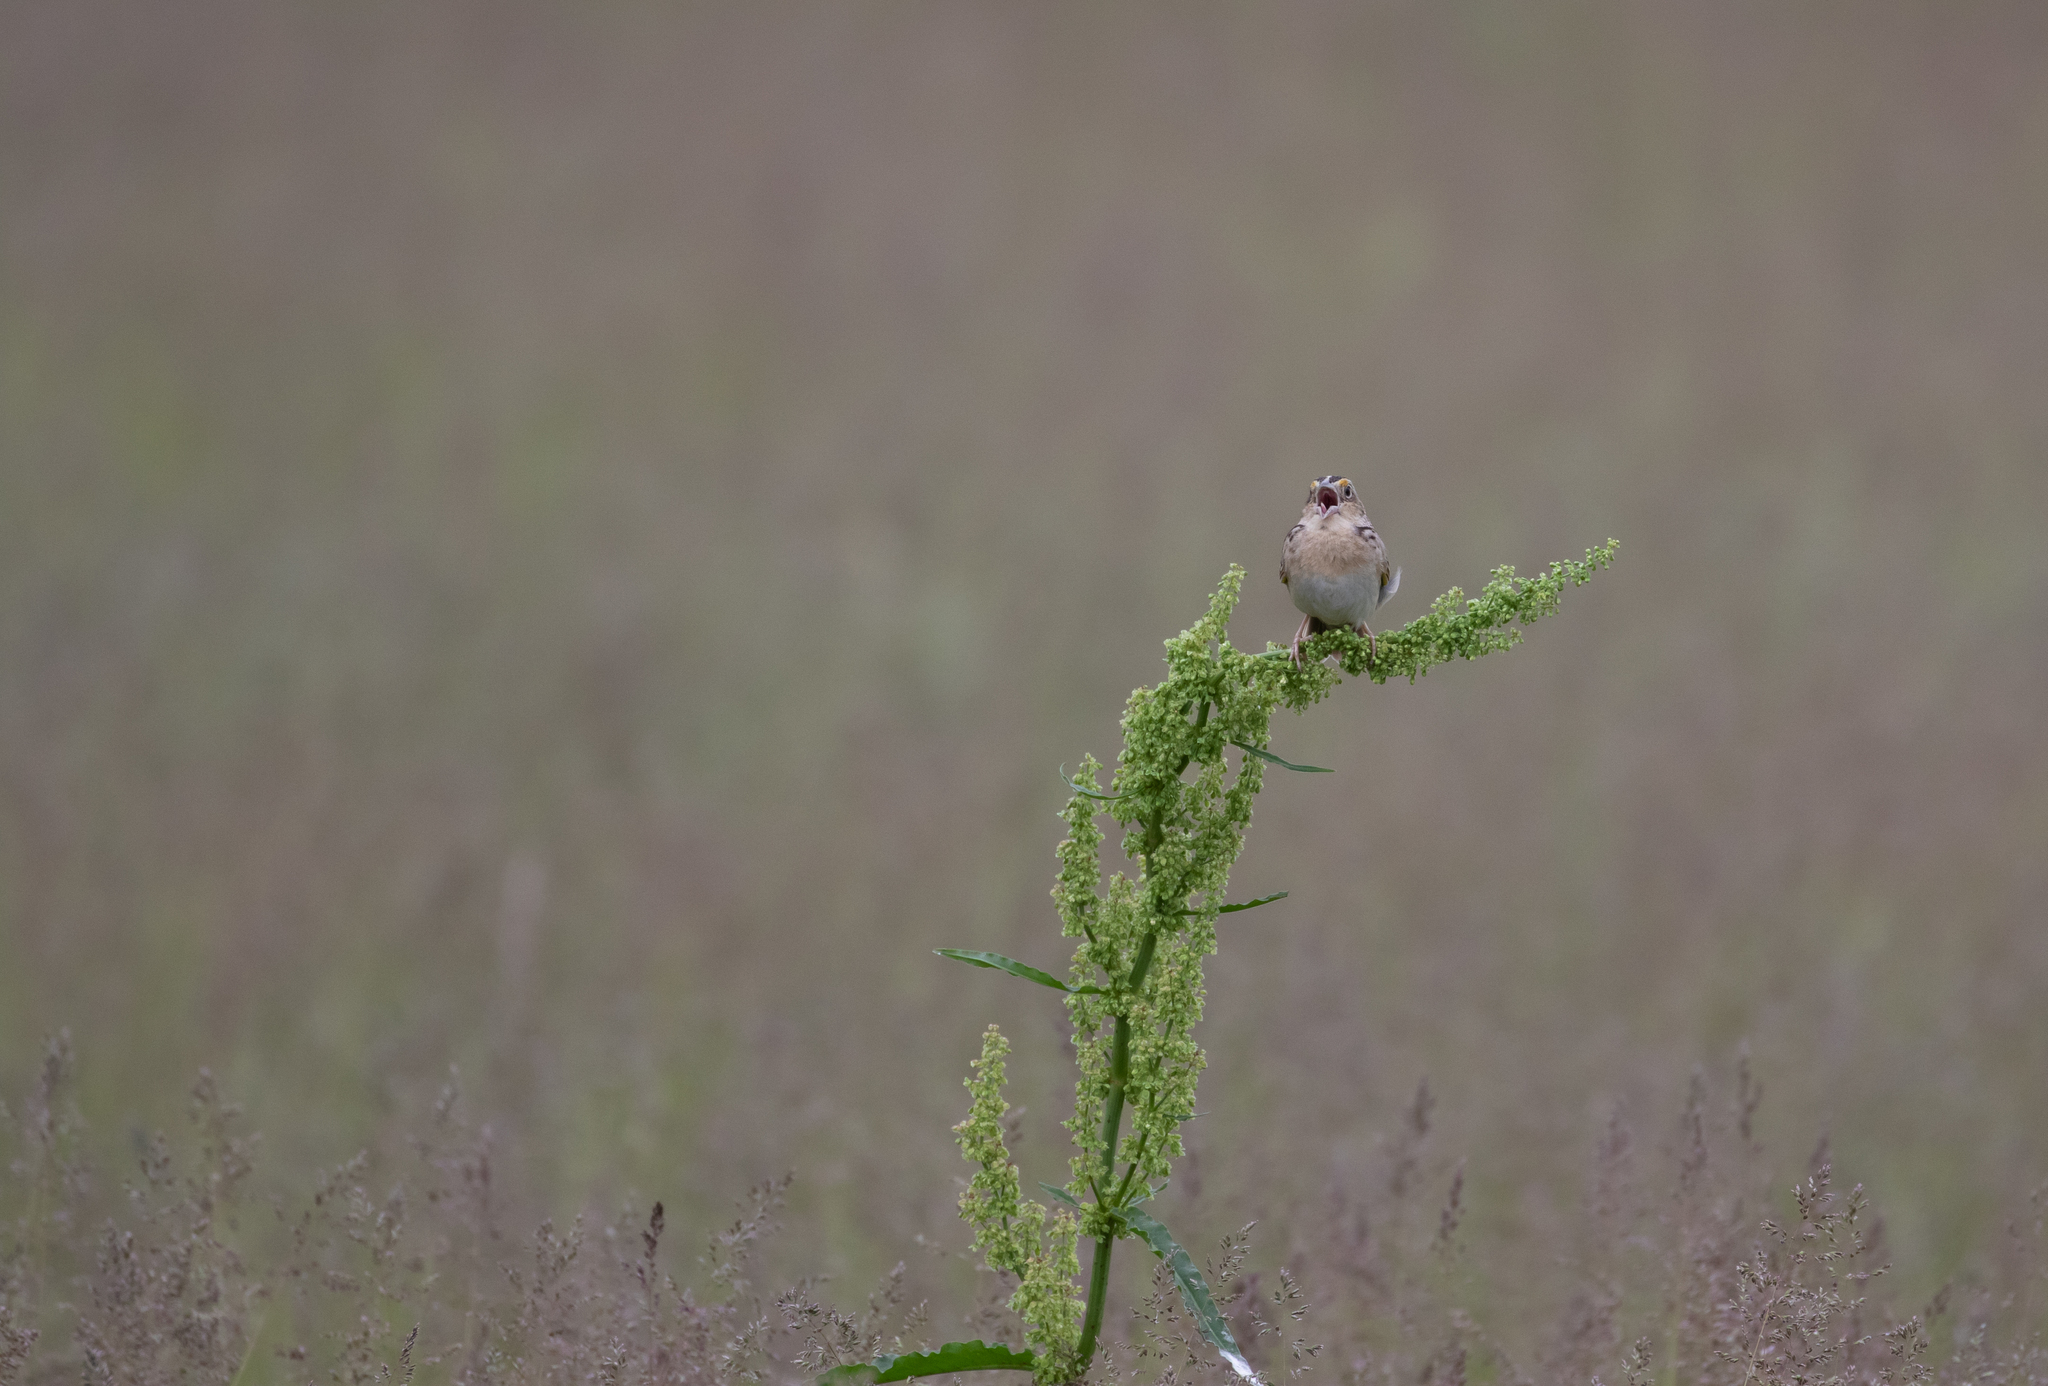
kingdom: Animalia
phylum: Chordata
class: Aves
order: Passeriformes
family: Passerellidae
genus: Ammodramus
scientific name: Ammodramus savannarum
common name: Grasshopper sparrow
